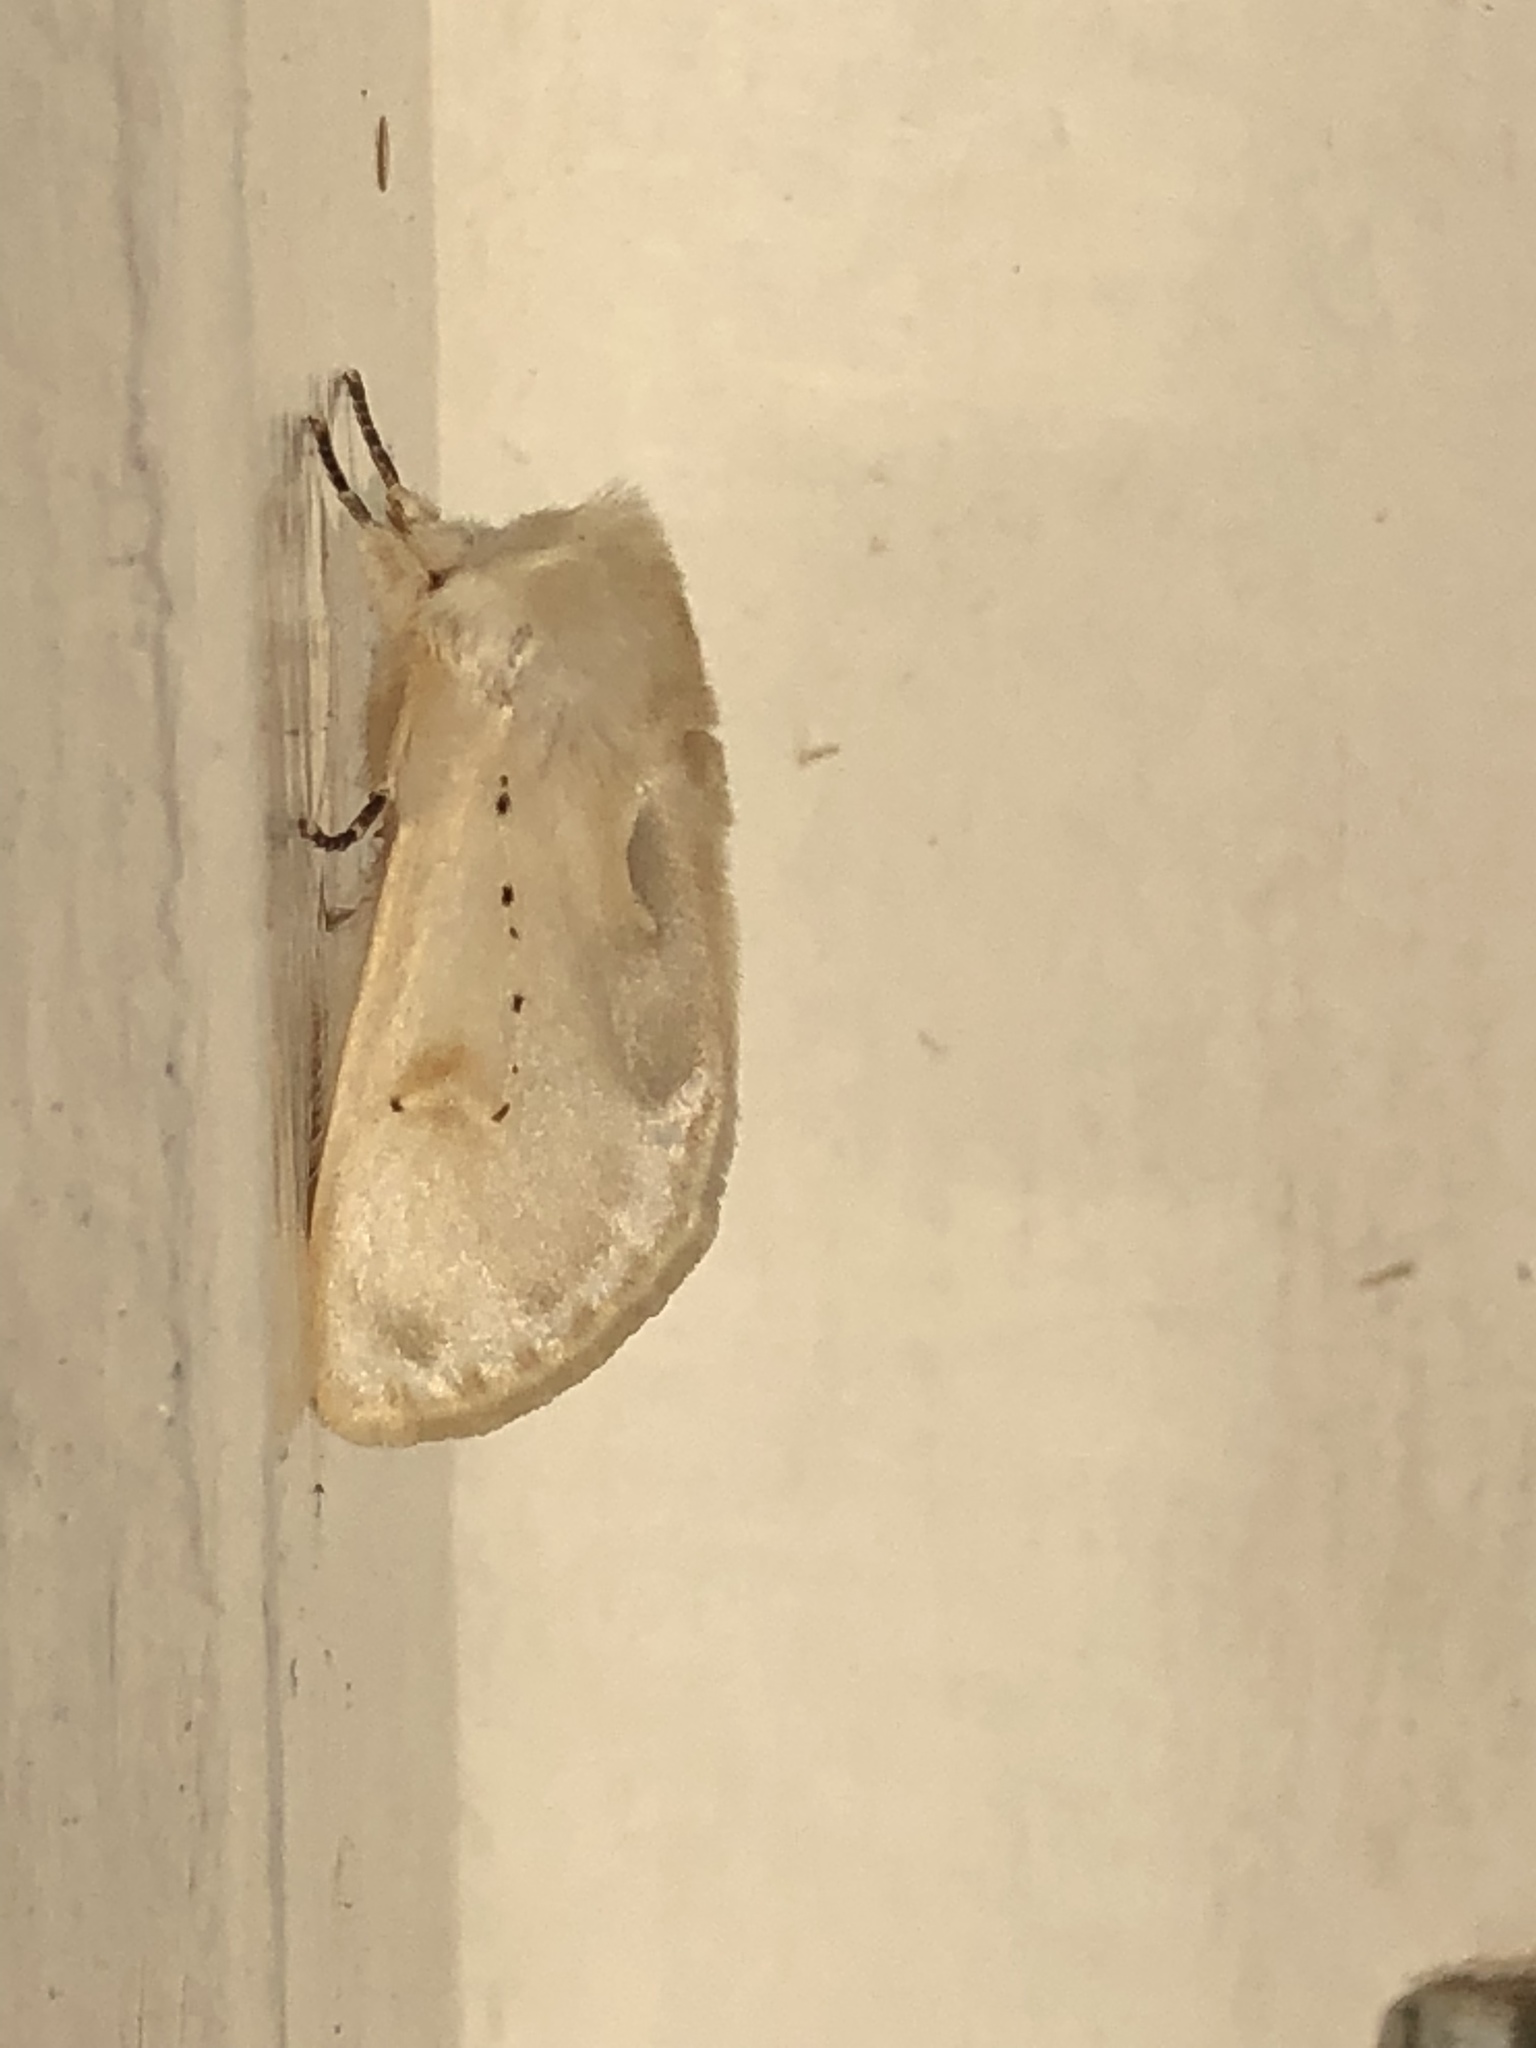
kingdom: Animalia
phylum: Arthropoda
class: Insecta
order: Lepidoptera
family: Erebidae
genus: Naroma
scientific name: Naroma varipes
